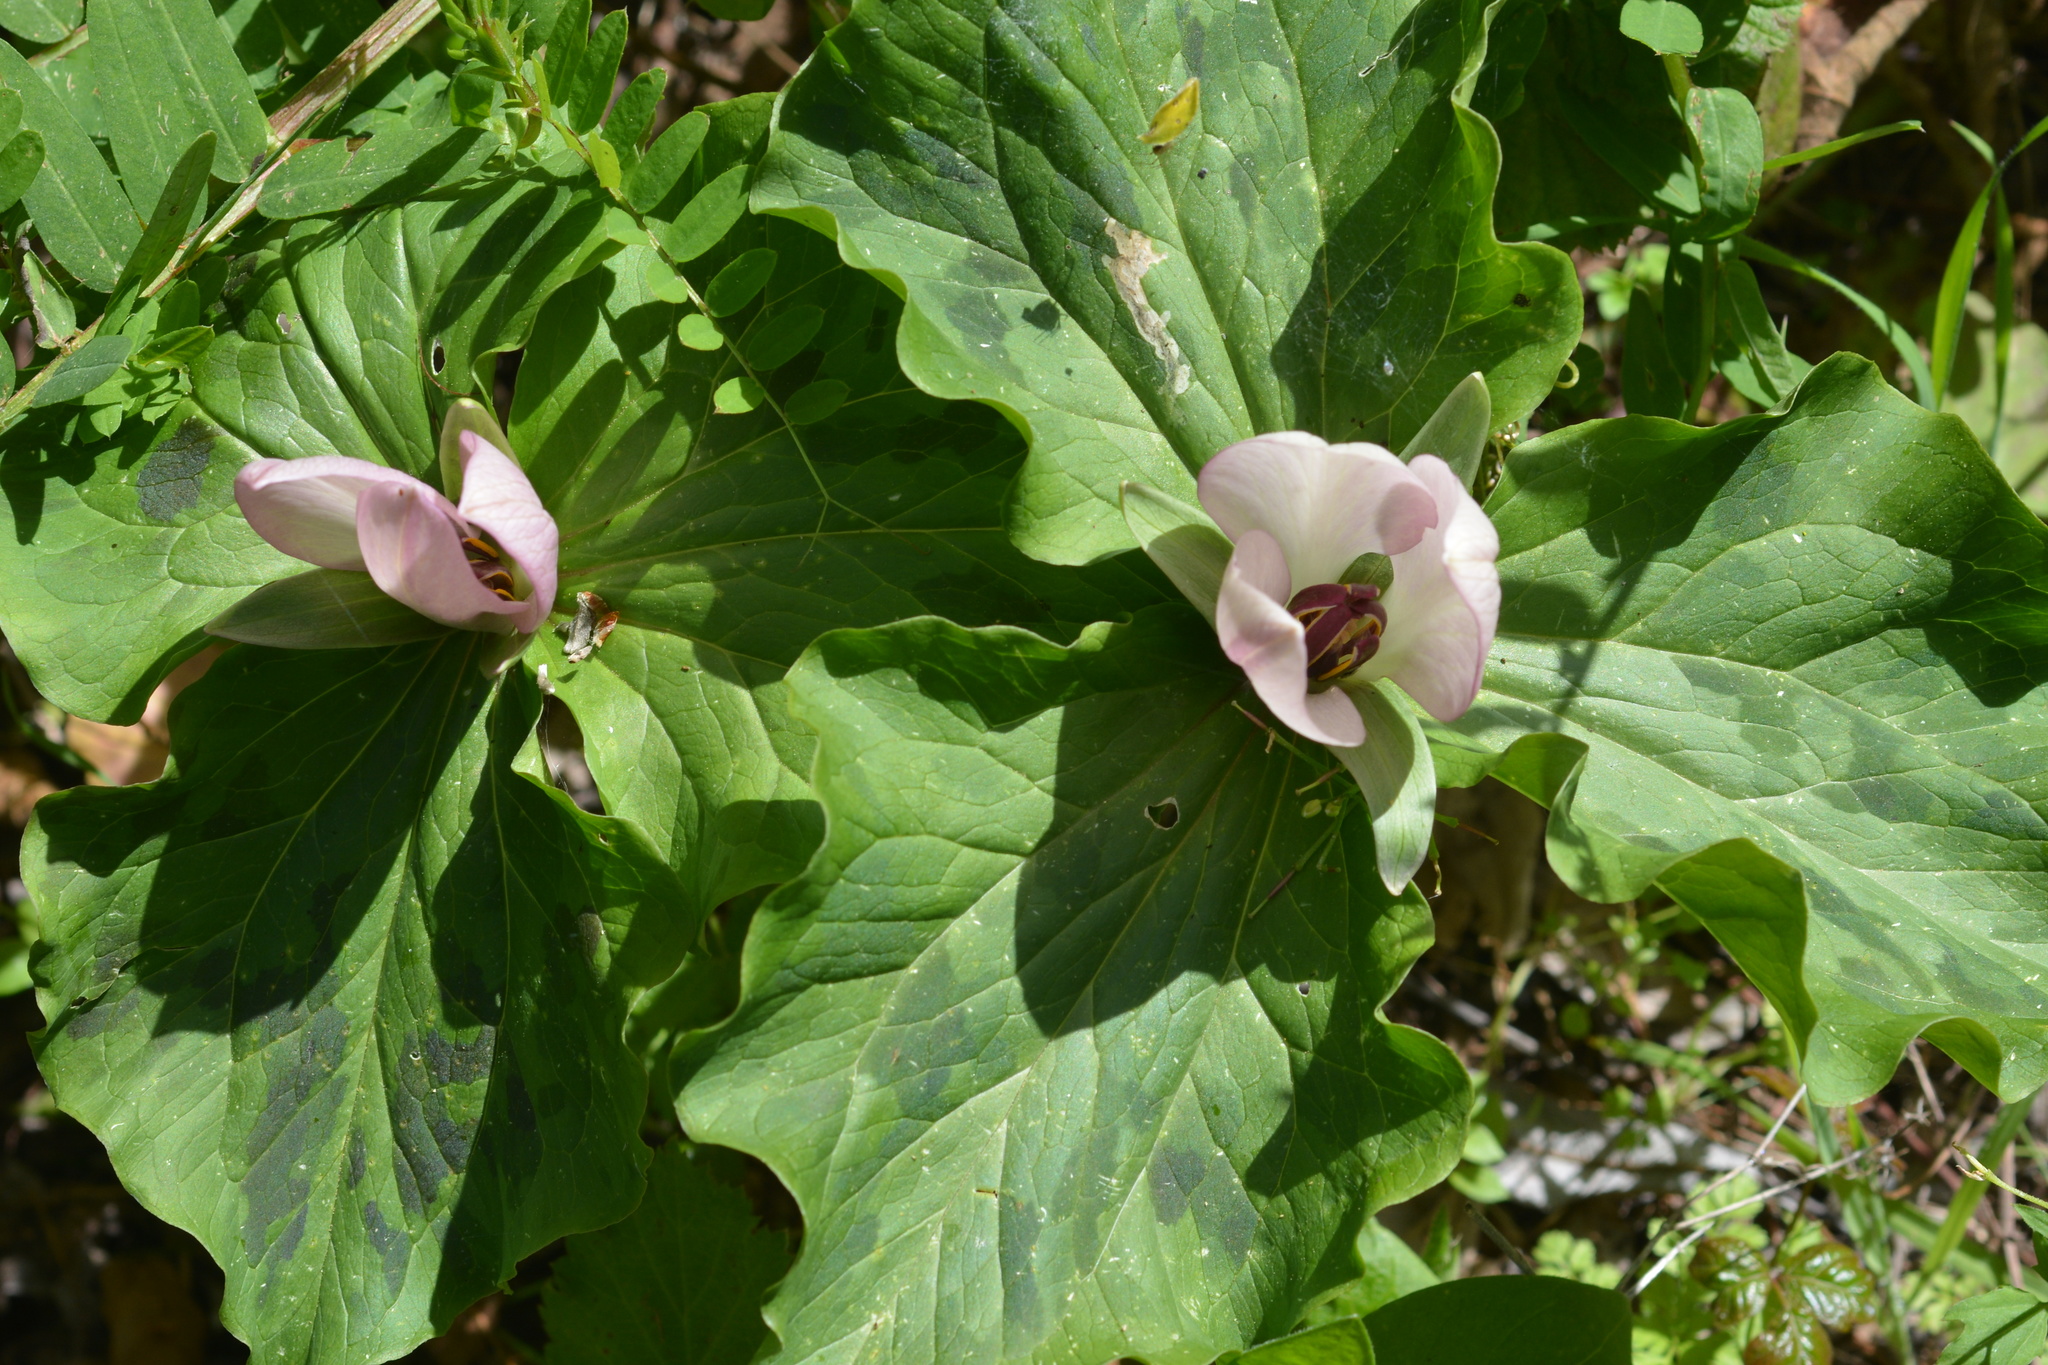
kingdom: Plantae
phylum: Tracheophyta
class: Liliopsida
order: Liliales
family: Melanthiaceae
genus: Trillium
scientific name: Trillium chloropetalum
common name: Giant trillium
